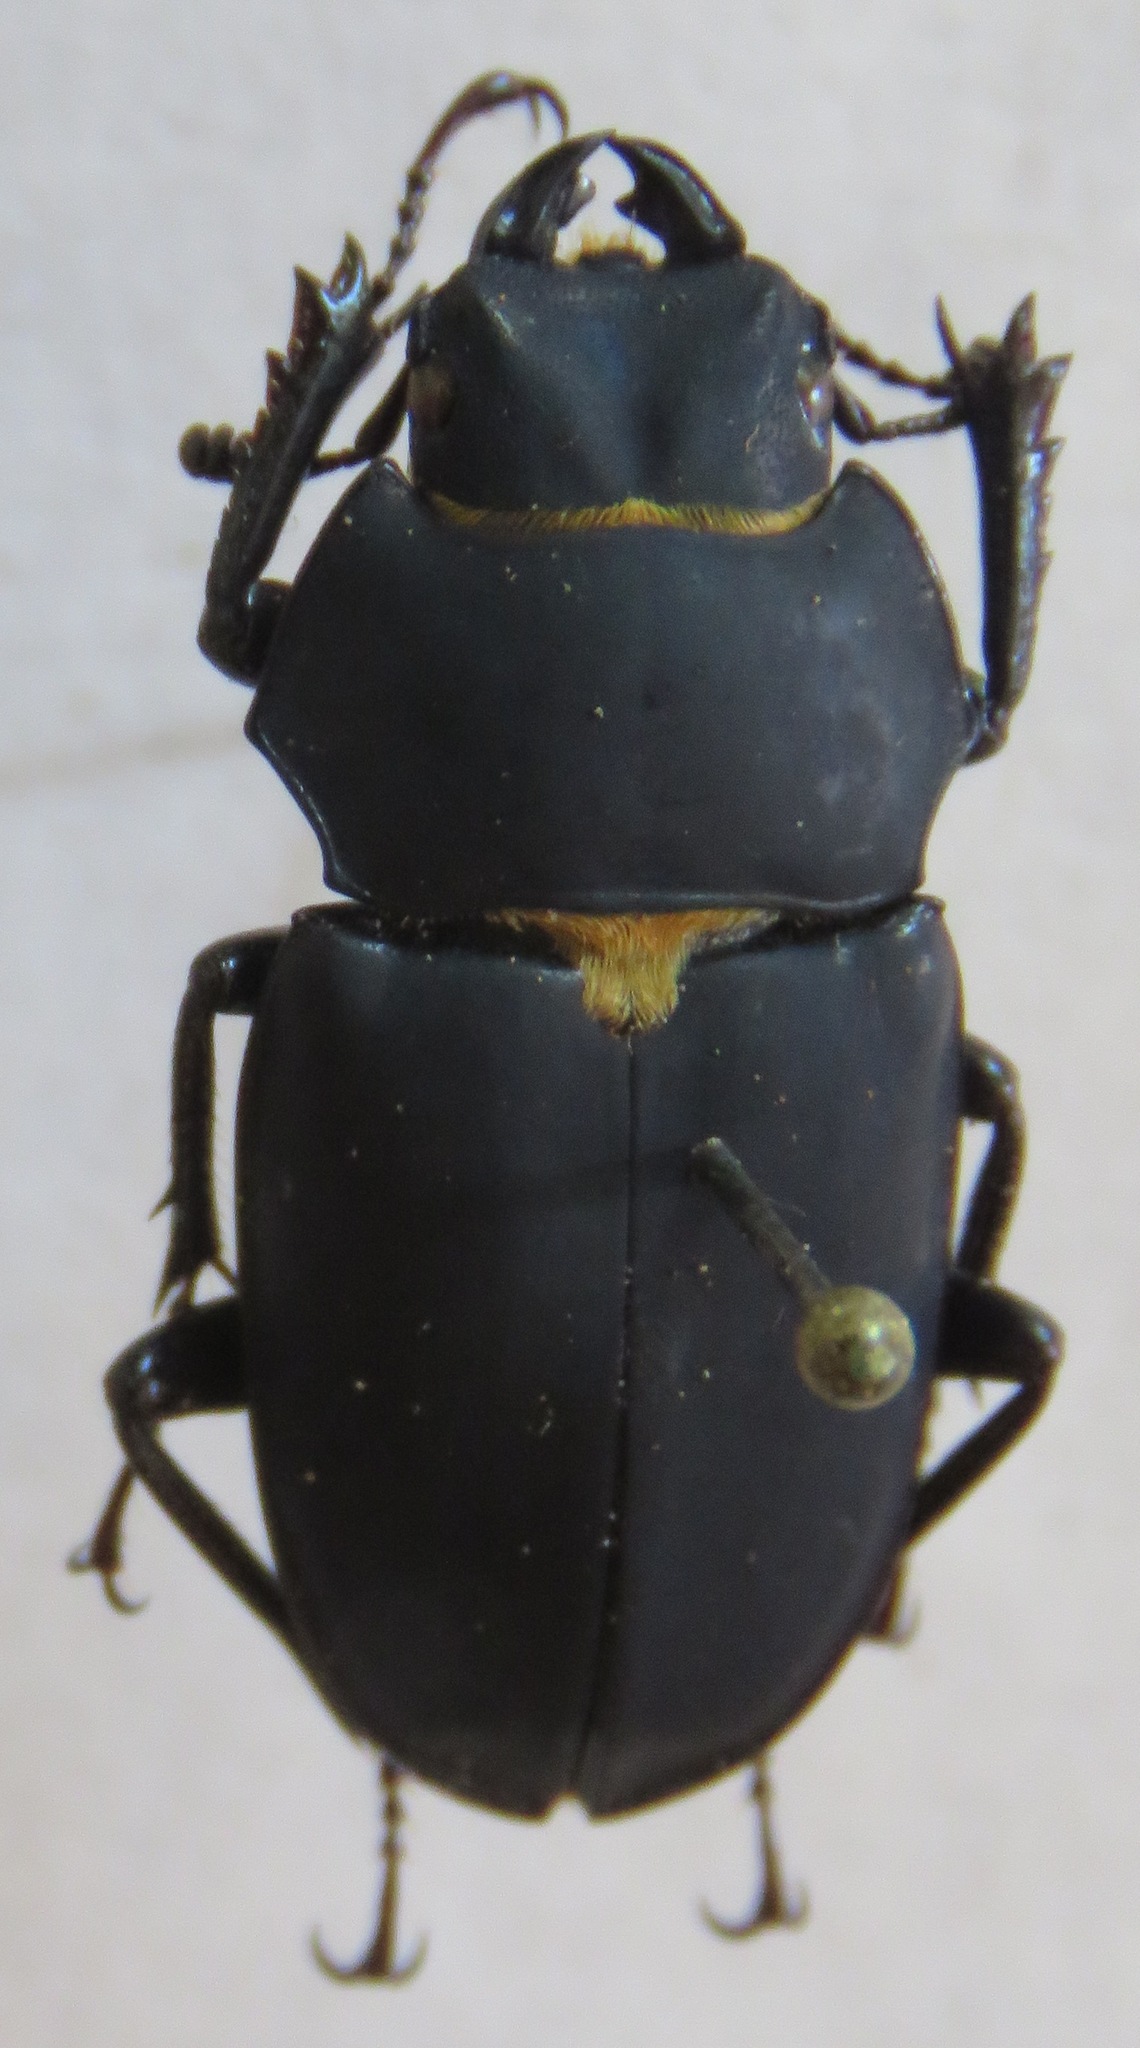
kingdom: Animalia
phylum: Arthropoda
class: Insecta
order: Coleoptera
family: Lucanidae
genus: Leptinopterus
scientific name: Leptinopterus fryi
